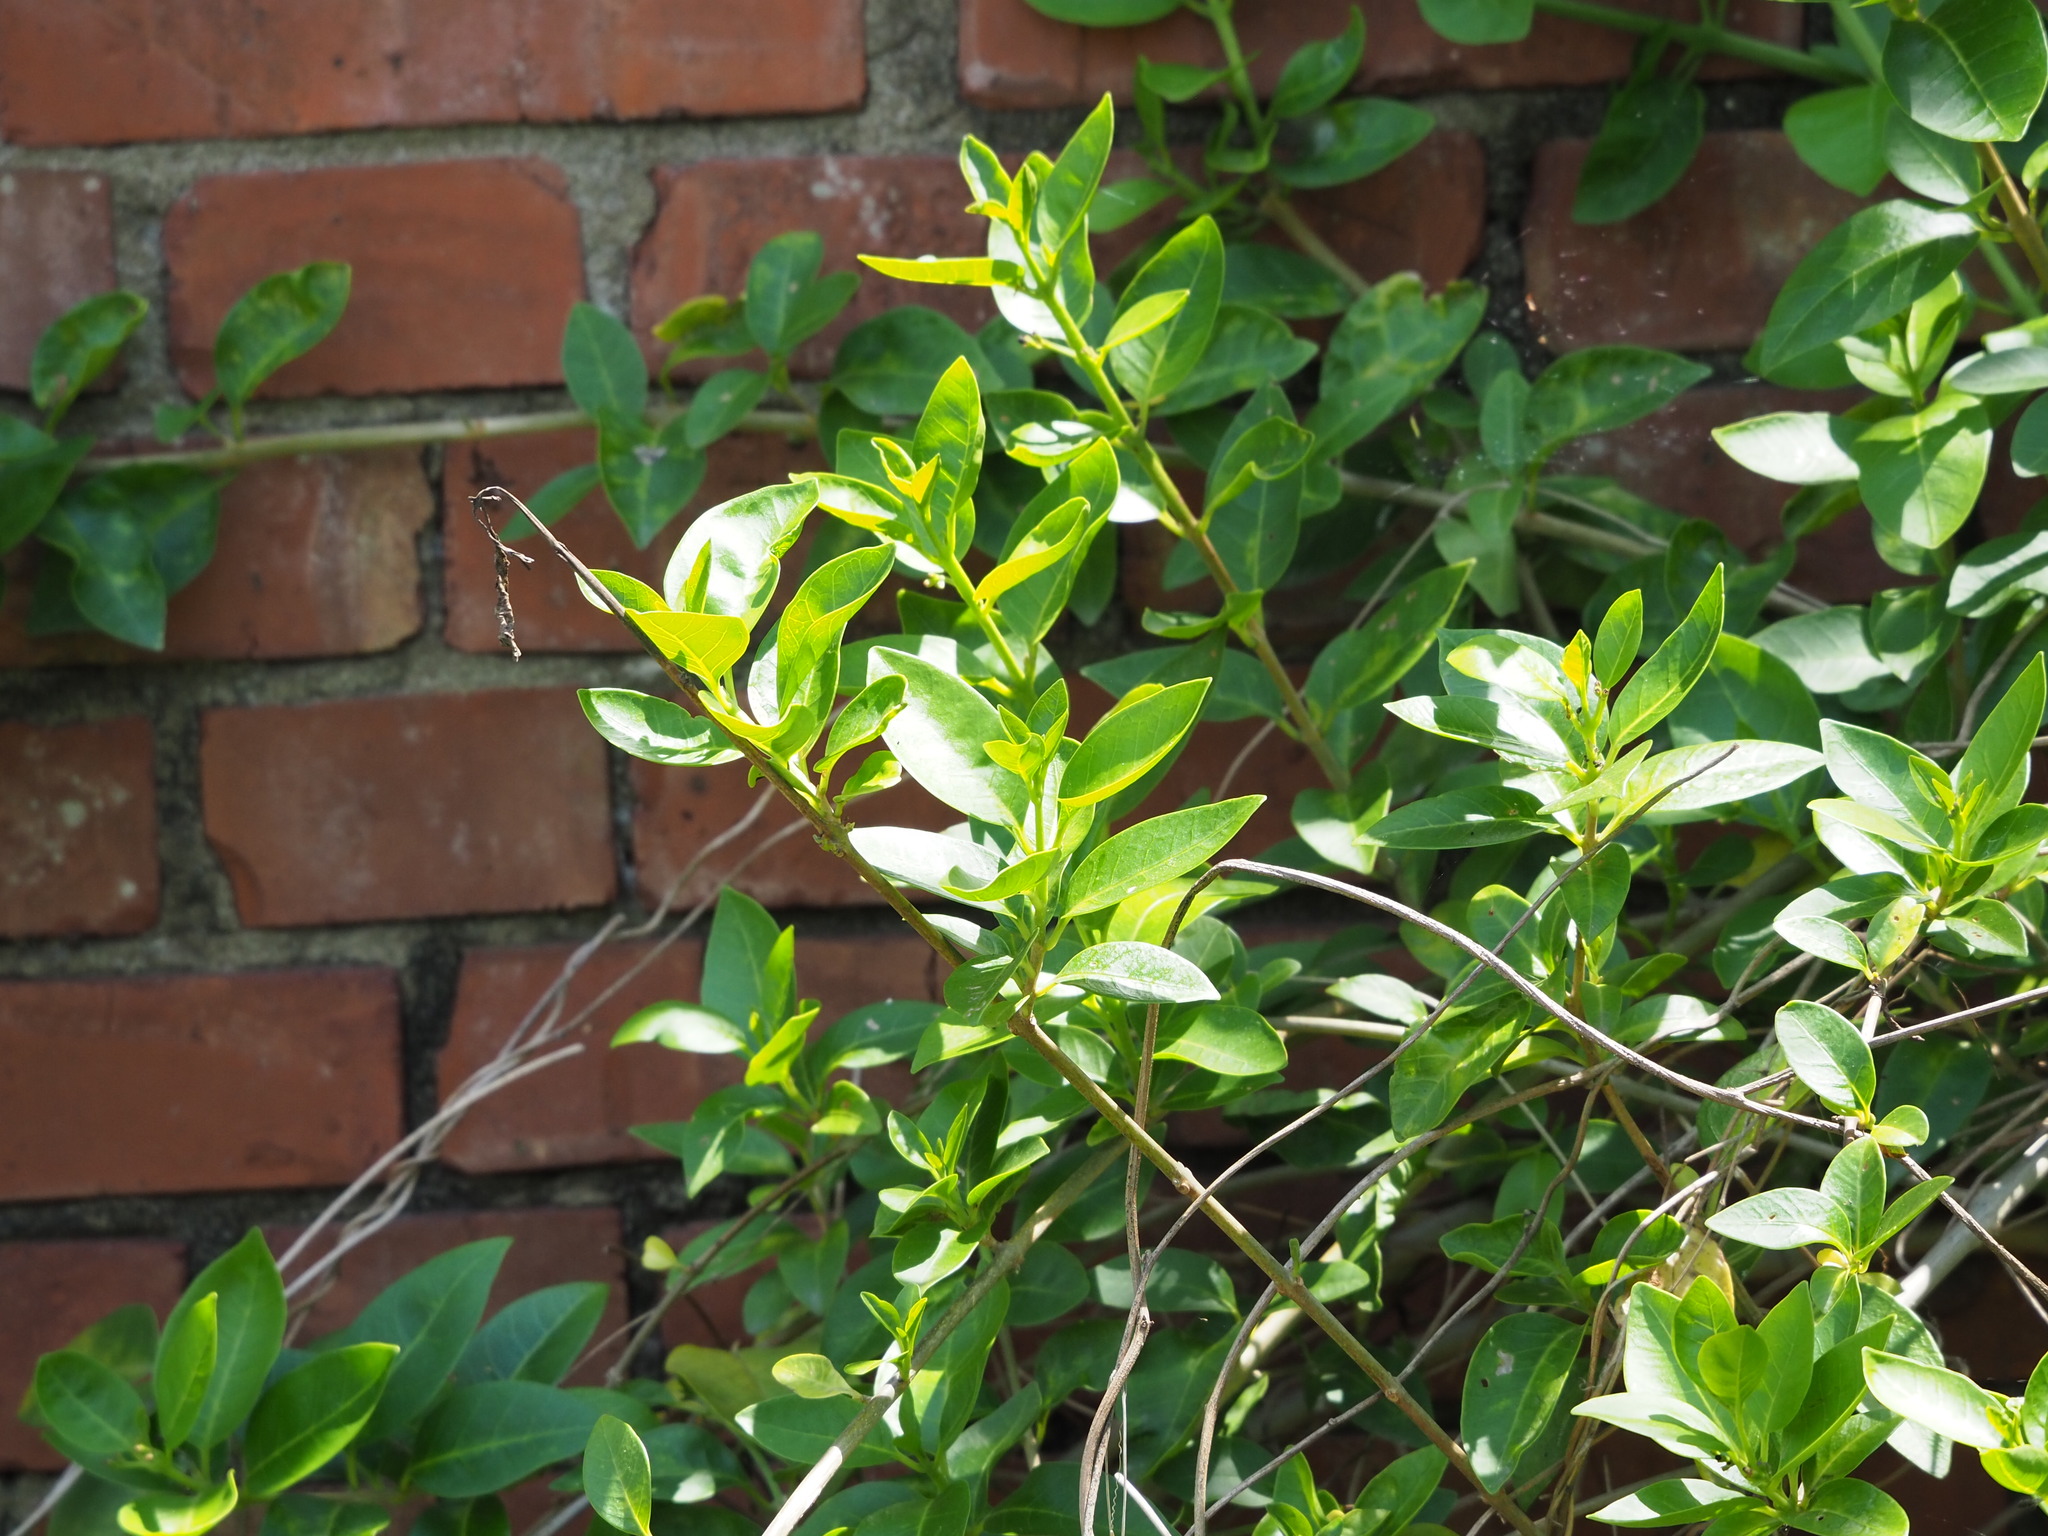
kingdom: Plantae
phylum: Tracheophyta
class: Magnoliopsida
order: Lamiales
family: Lamiaceae
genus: Volkameria
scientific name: Volkameria inermis
